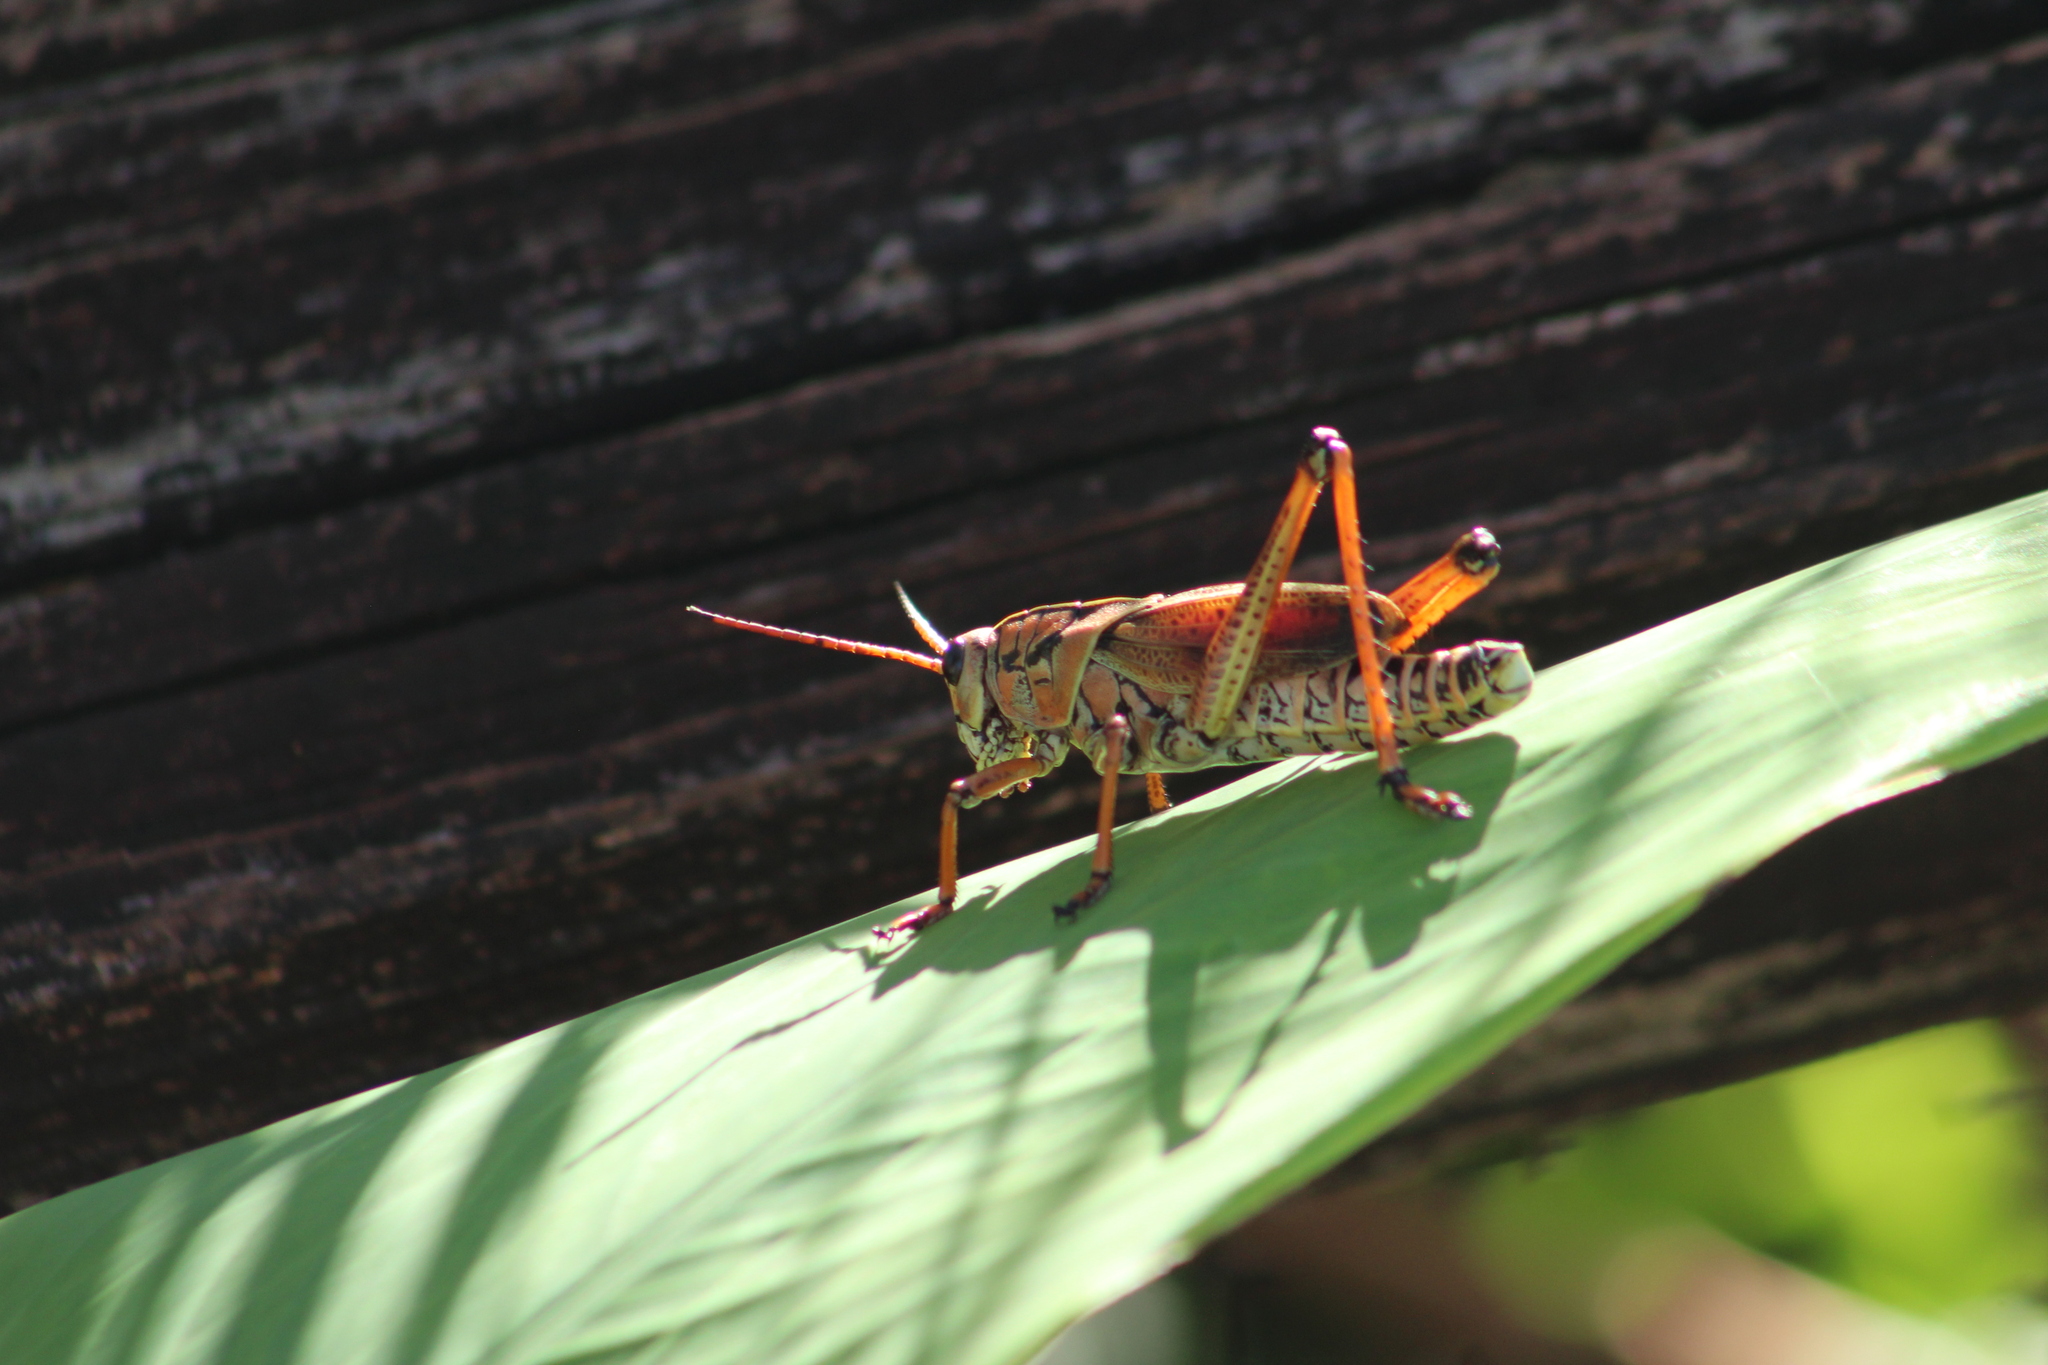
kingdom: Animalia
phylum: Arthropoda
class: Insecta
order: Orthoptera
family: Romaleidae
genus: Romalea
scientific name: Romalea microptera
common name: Eastern lubber grasshopper
